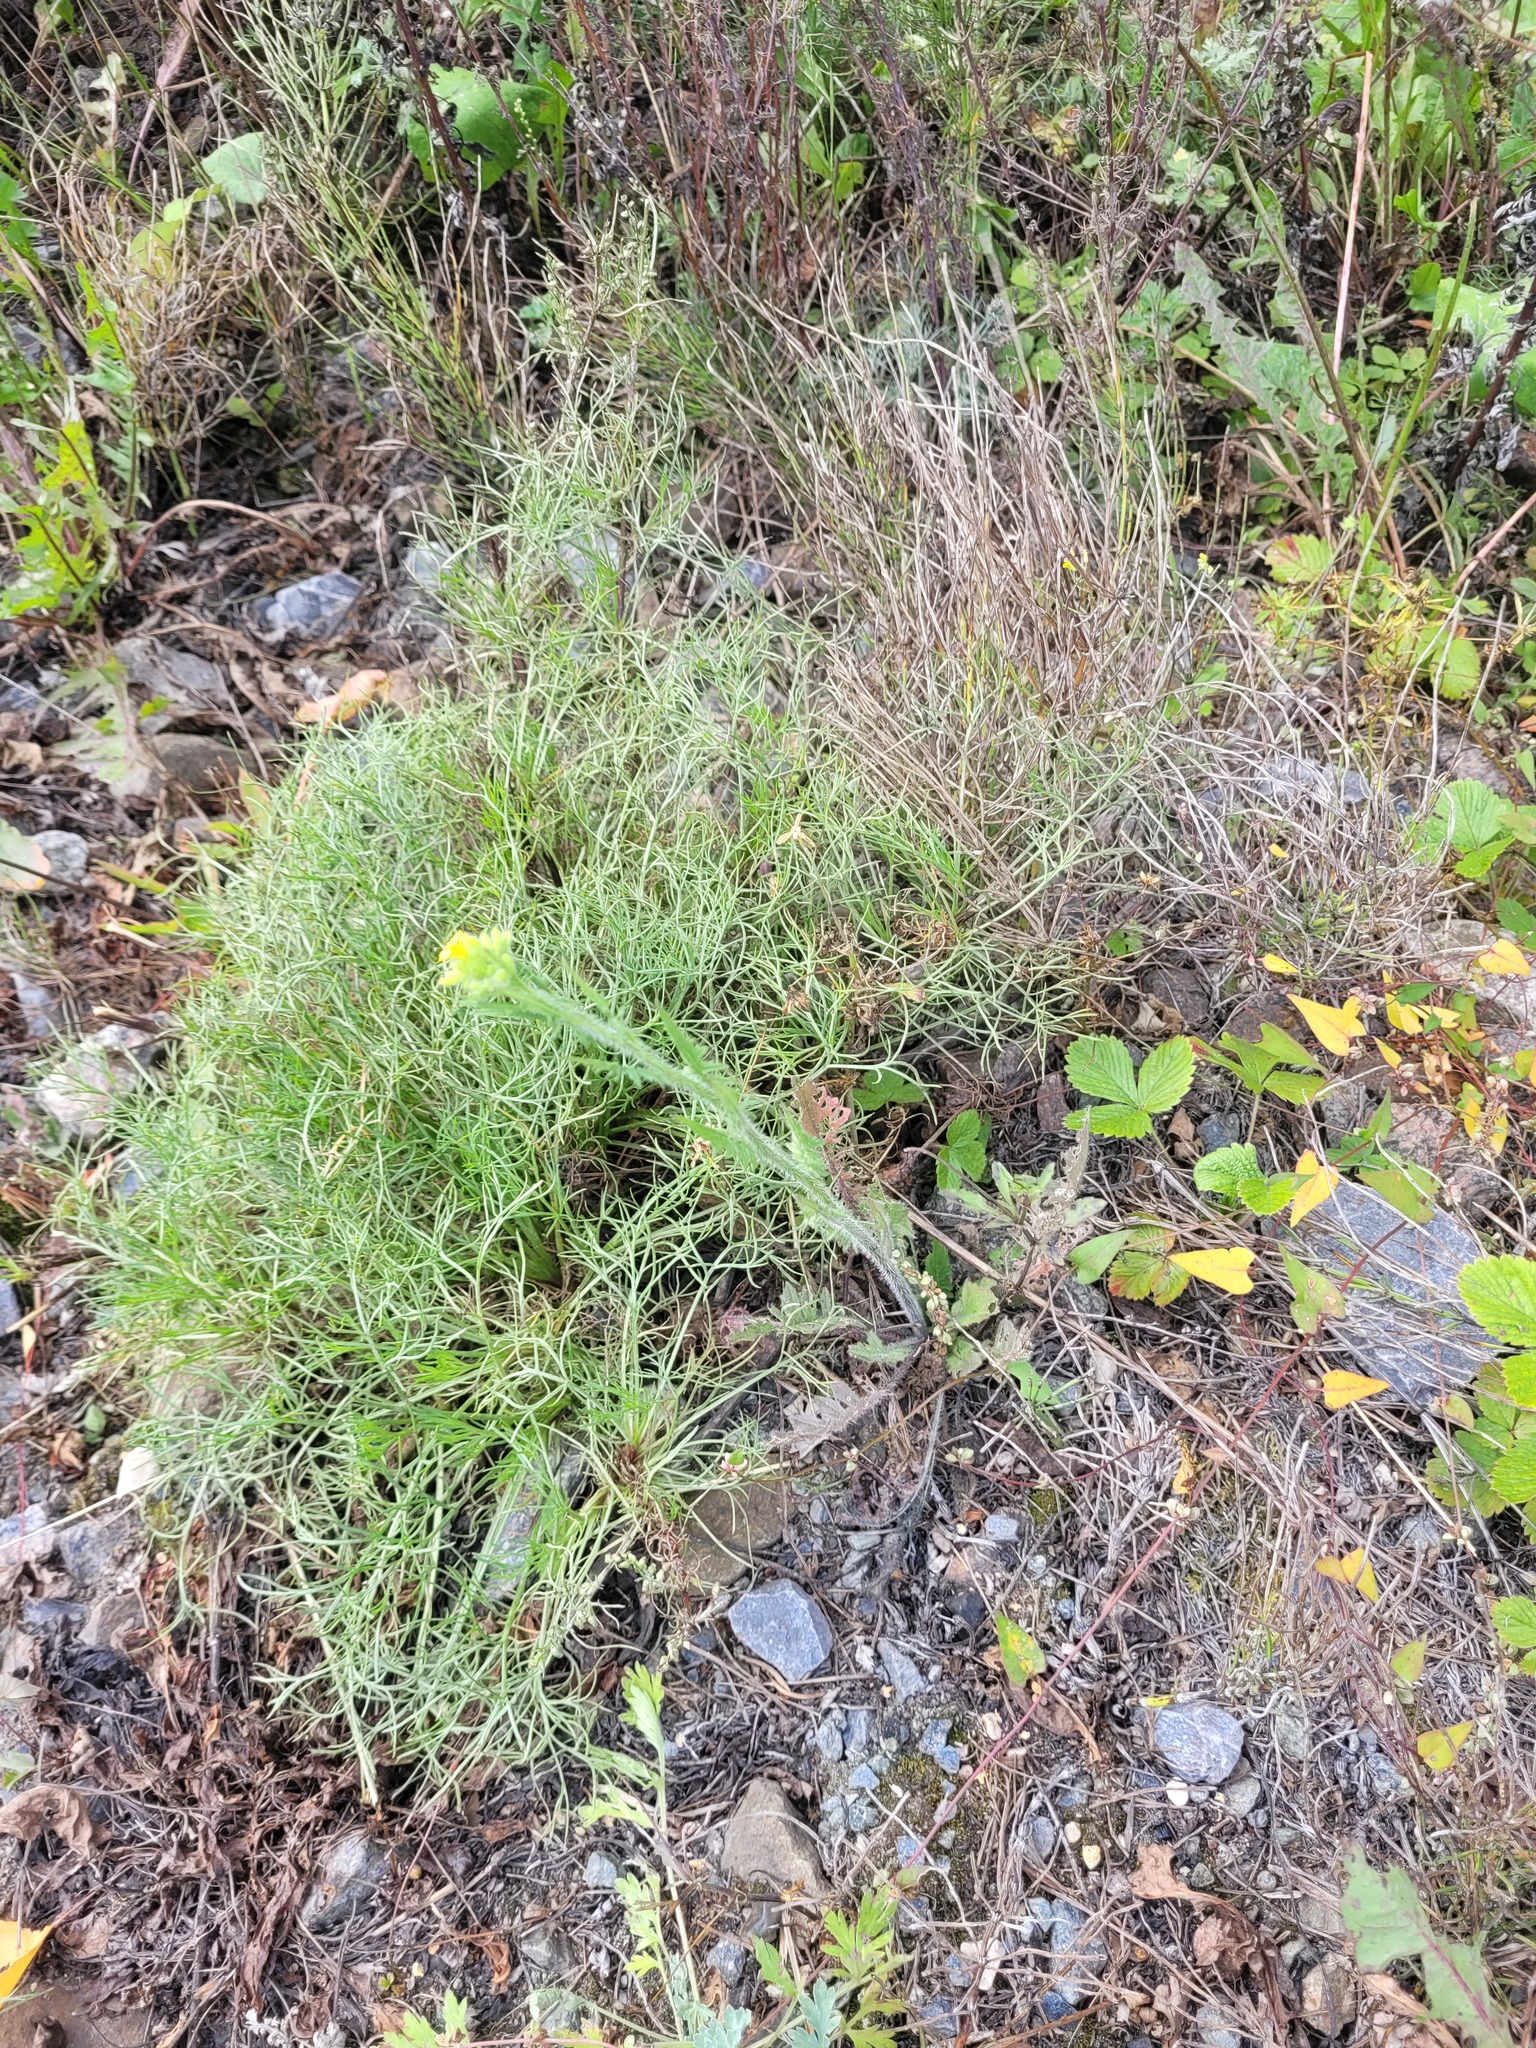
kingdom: Plantae
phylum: Tracheophyta
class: Magnoliopsida
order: Asterales
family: Asteraceae
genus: Artemisia
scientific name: Artemisia campestris
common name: Field wormwood
